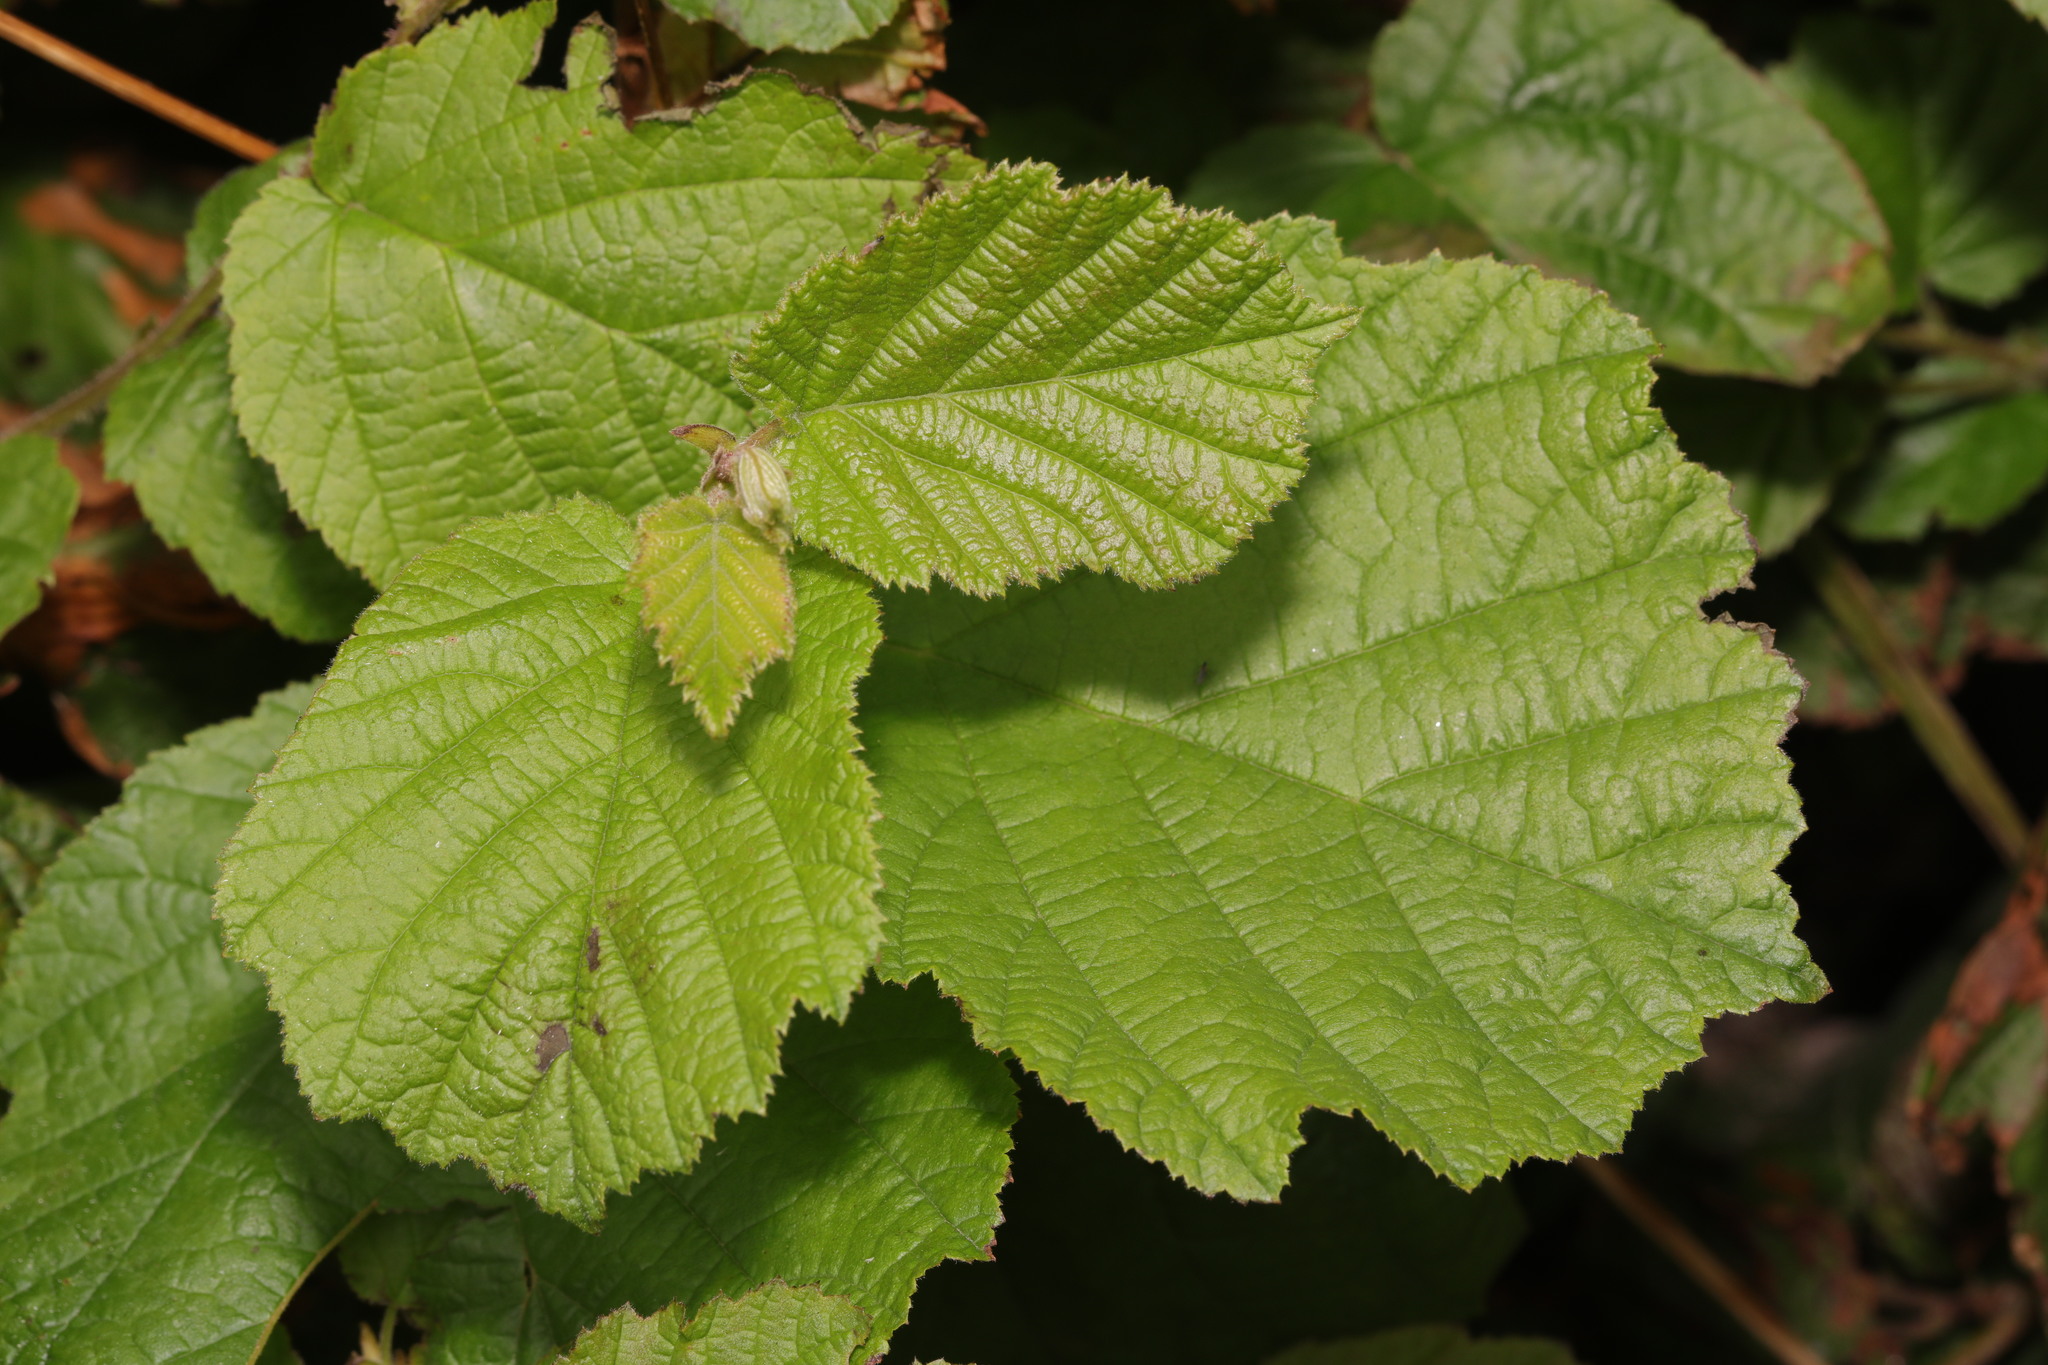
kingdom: Plantae
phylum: Tracheophyta
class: Magnoliopsida
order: Fagales
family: Betulaceae
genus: Corylus
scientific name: Corylus avellana
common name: European hazel
